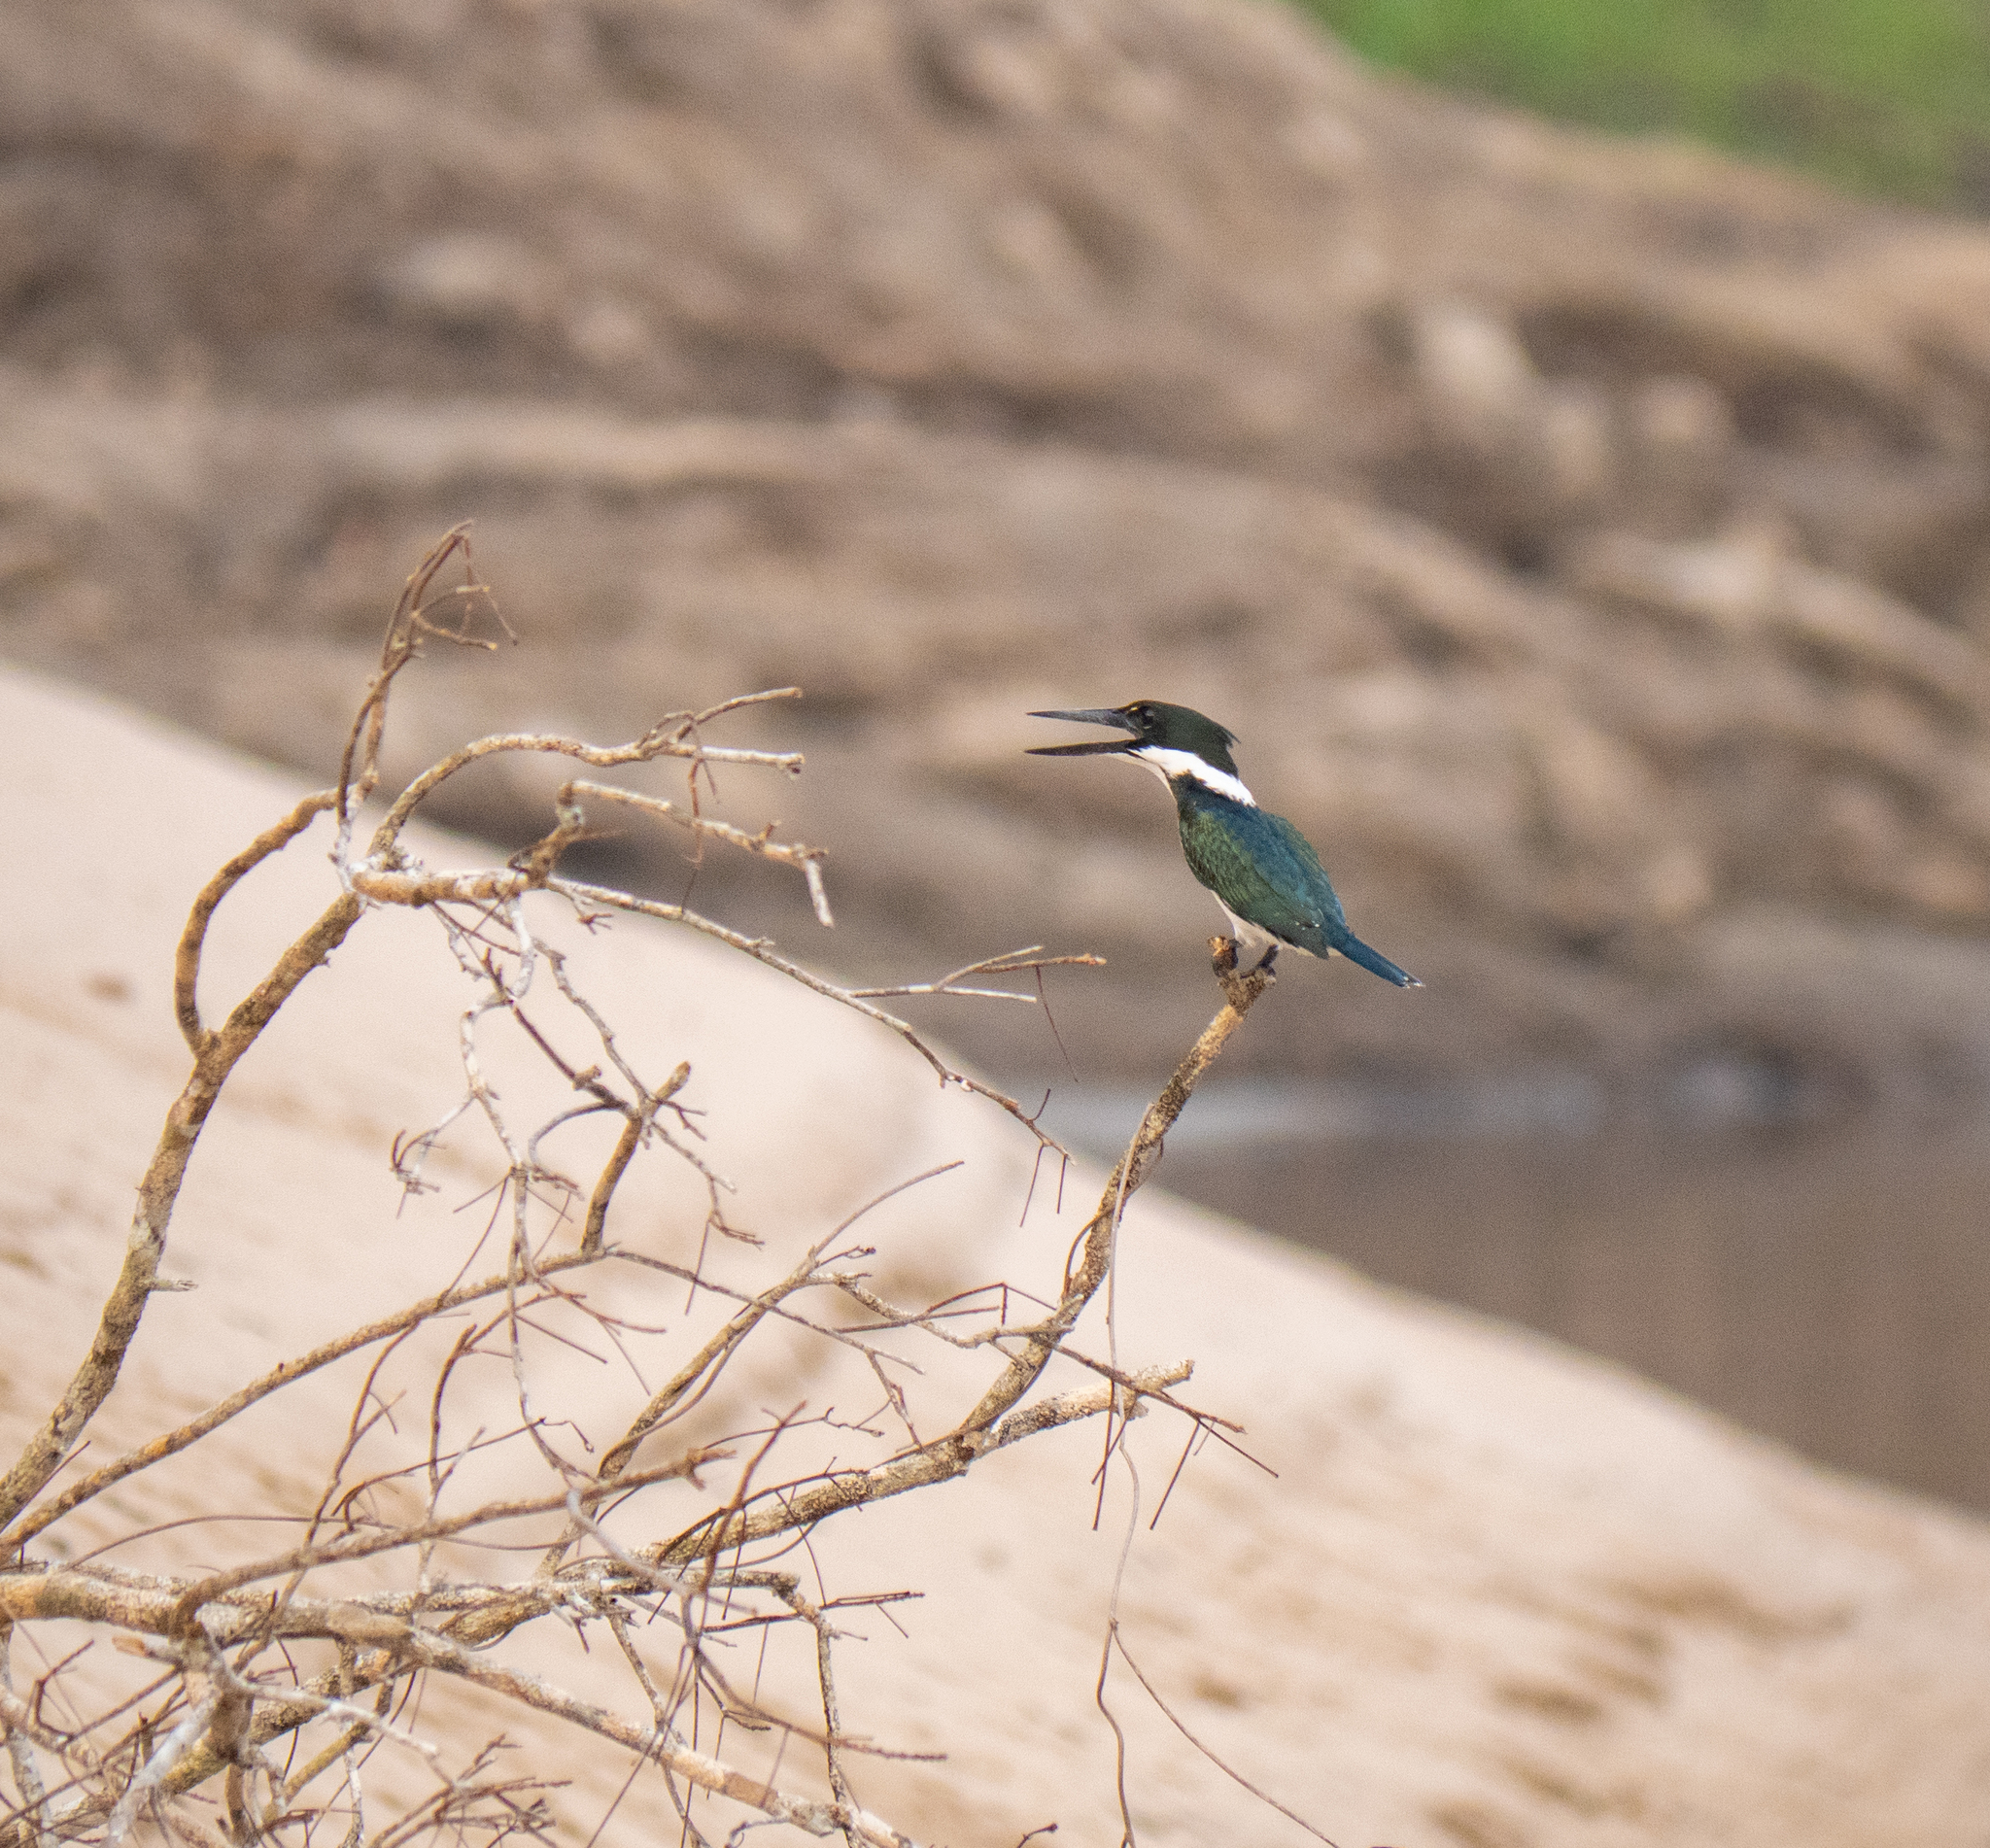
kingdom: Animalia
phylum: Chordata
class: Aves
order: Coraciiformes
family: Alcedinidae
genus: Chloroceryle
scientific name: Chloroceryle amazona
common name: Amazon kingfisher
